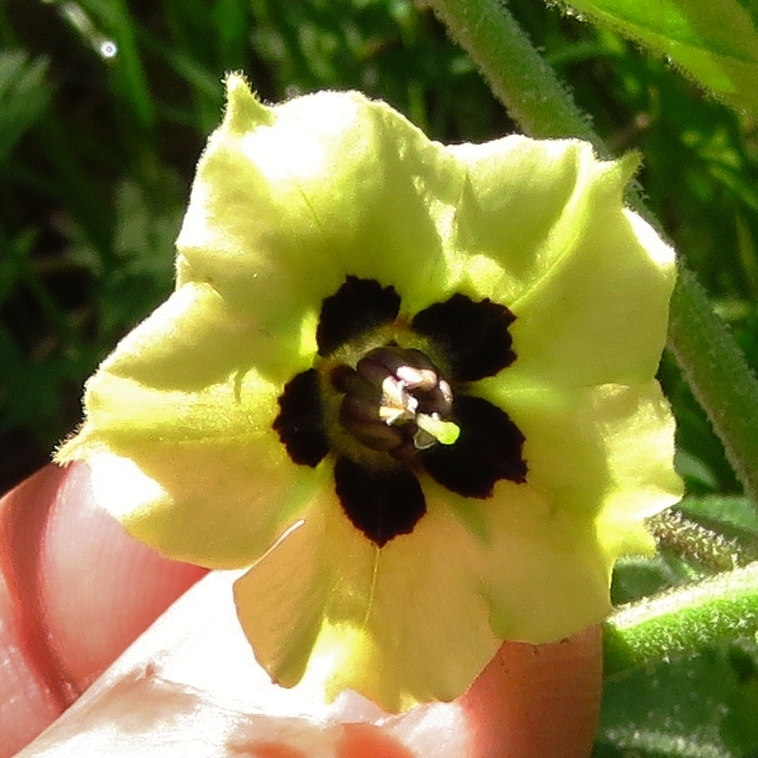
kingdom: Plantae
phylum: Tracheophyta
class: Magnoliopsida
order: Solanales
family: Solanaceae
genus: Physalis
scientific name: Physalis cinerascens
